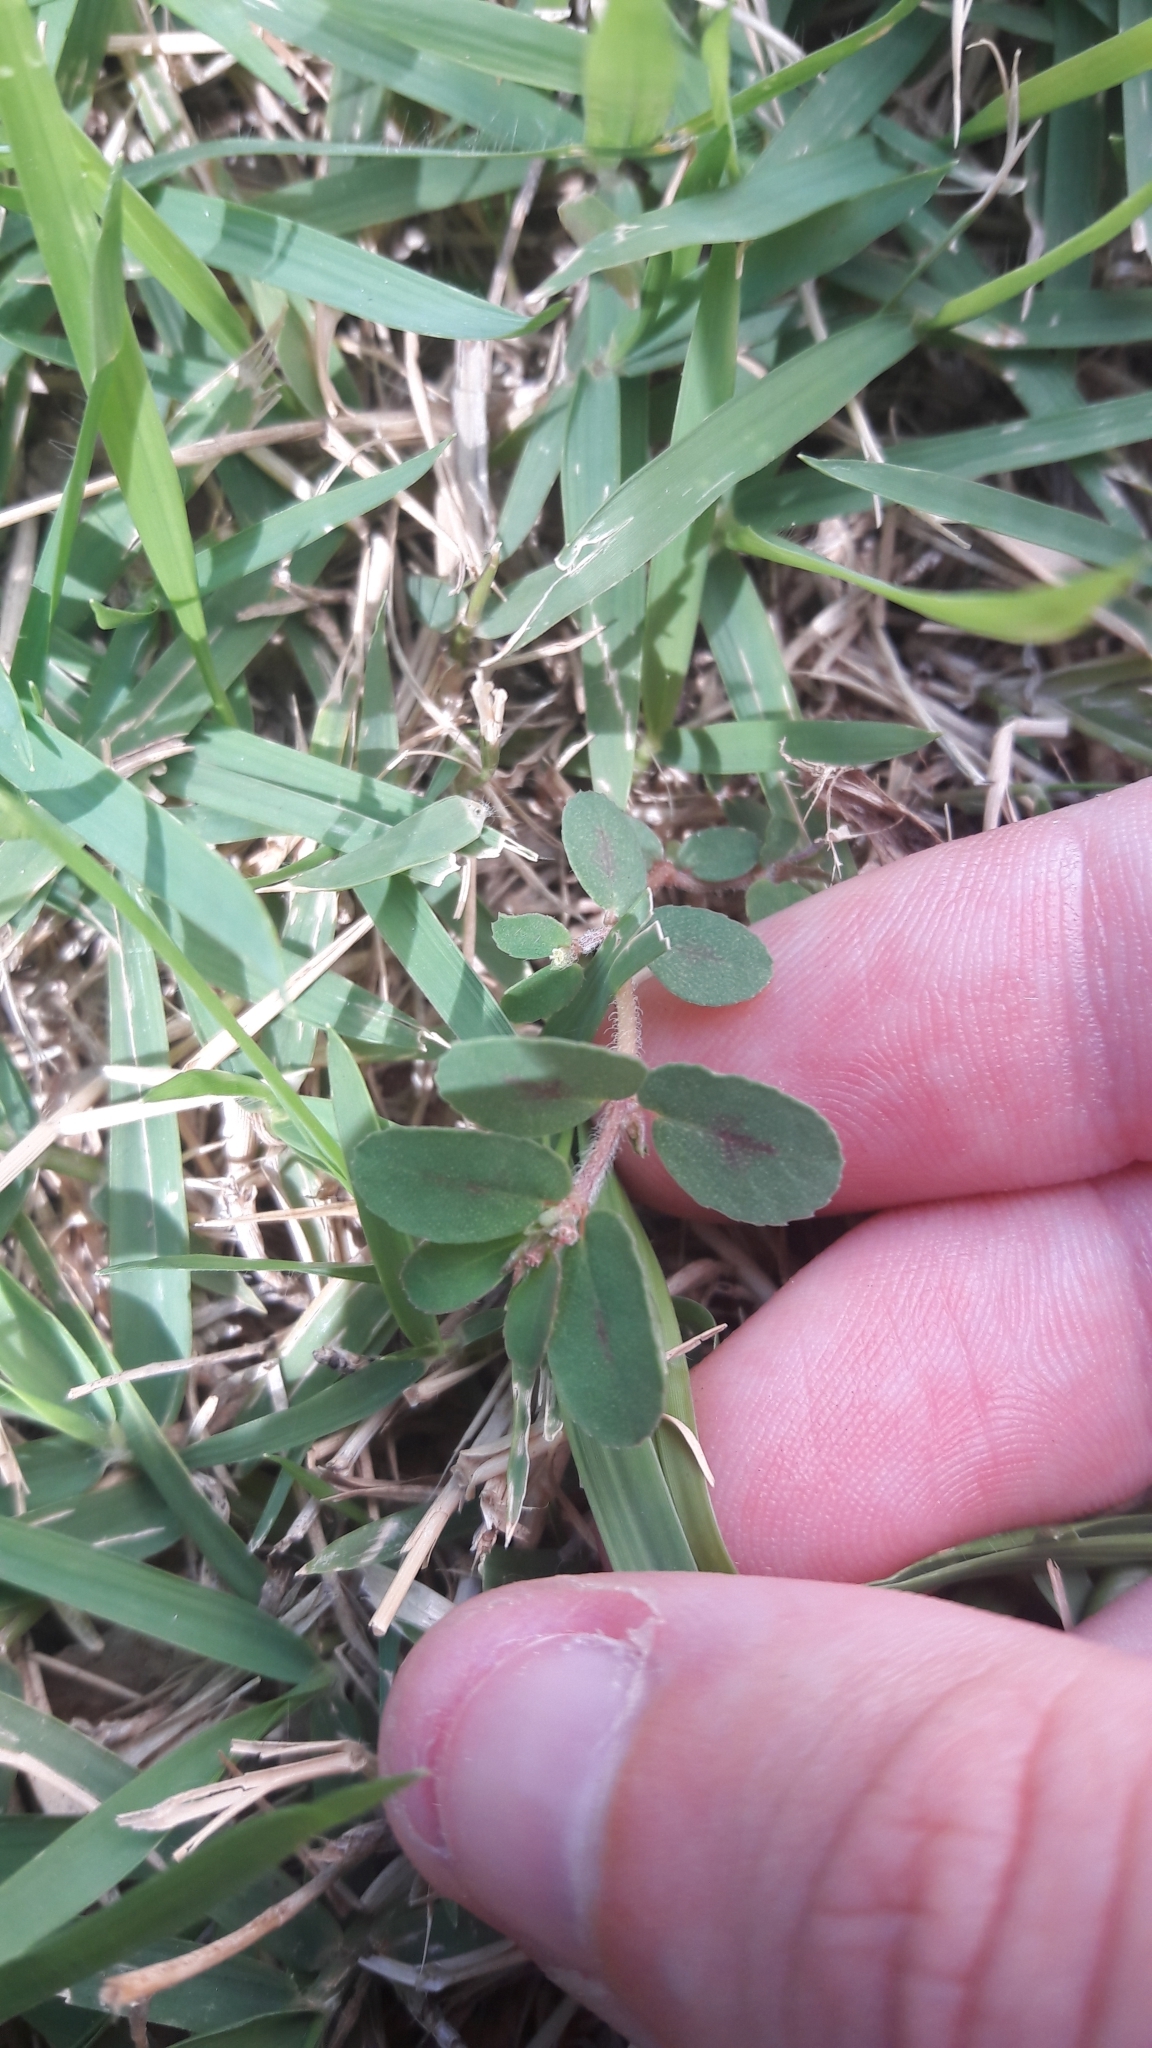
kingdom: Plantae
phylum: Tracheophyta
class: Magnoliopsida
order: Malpighiales
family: Euphorbiaceae
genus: Euphorbia
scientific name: Euphorbia maculata
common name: Spotted spurge
